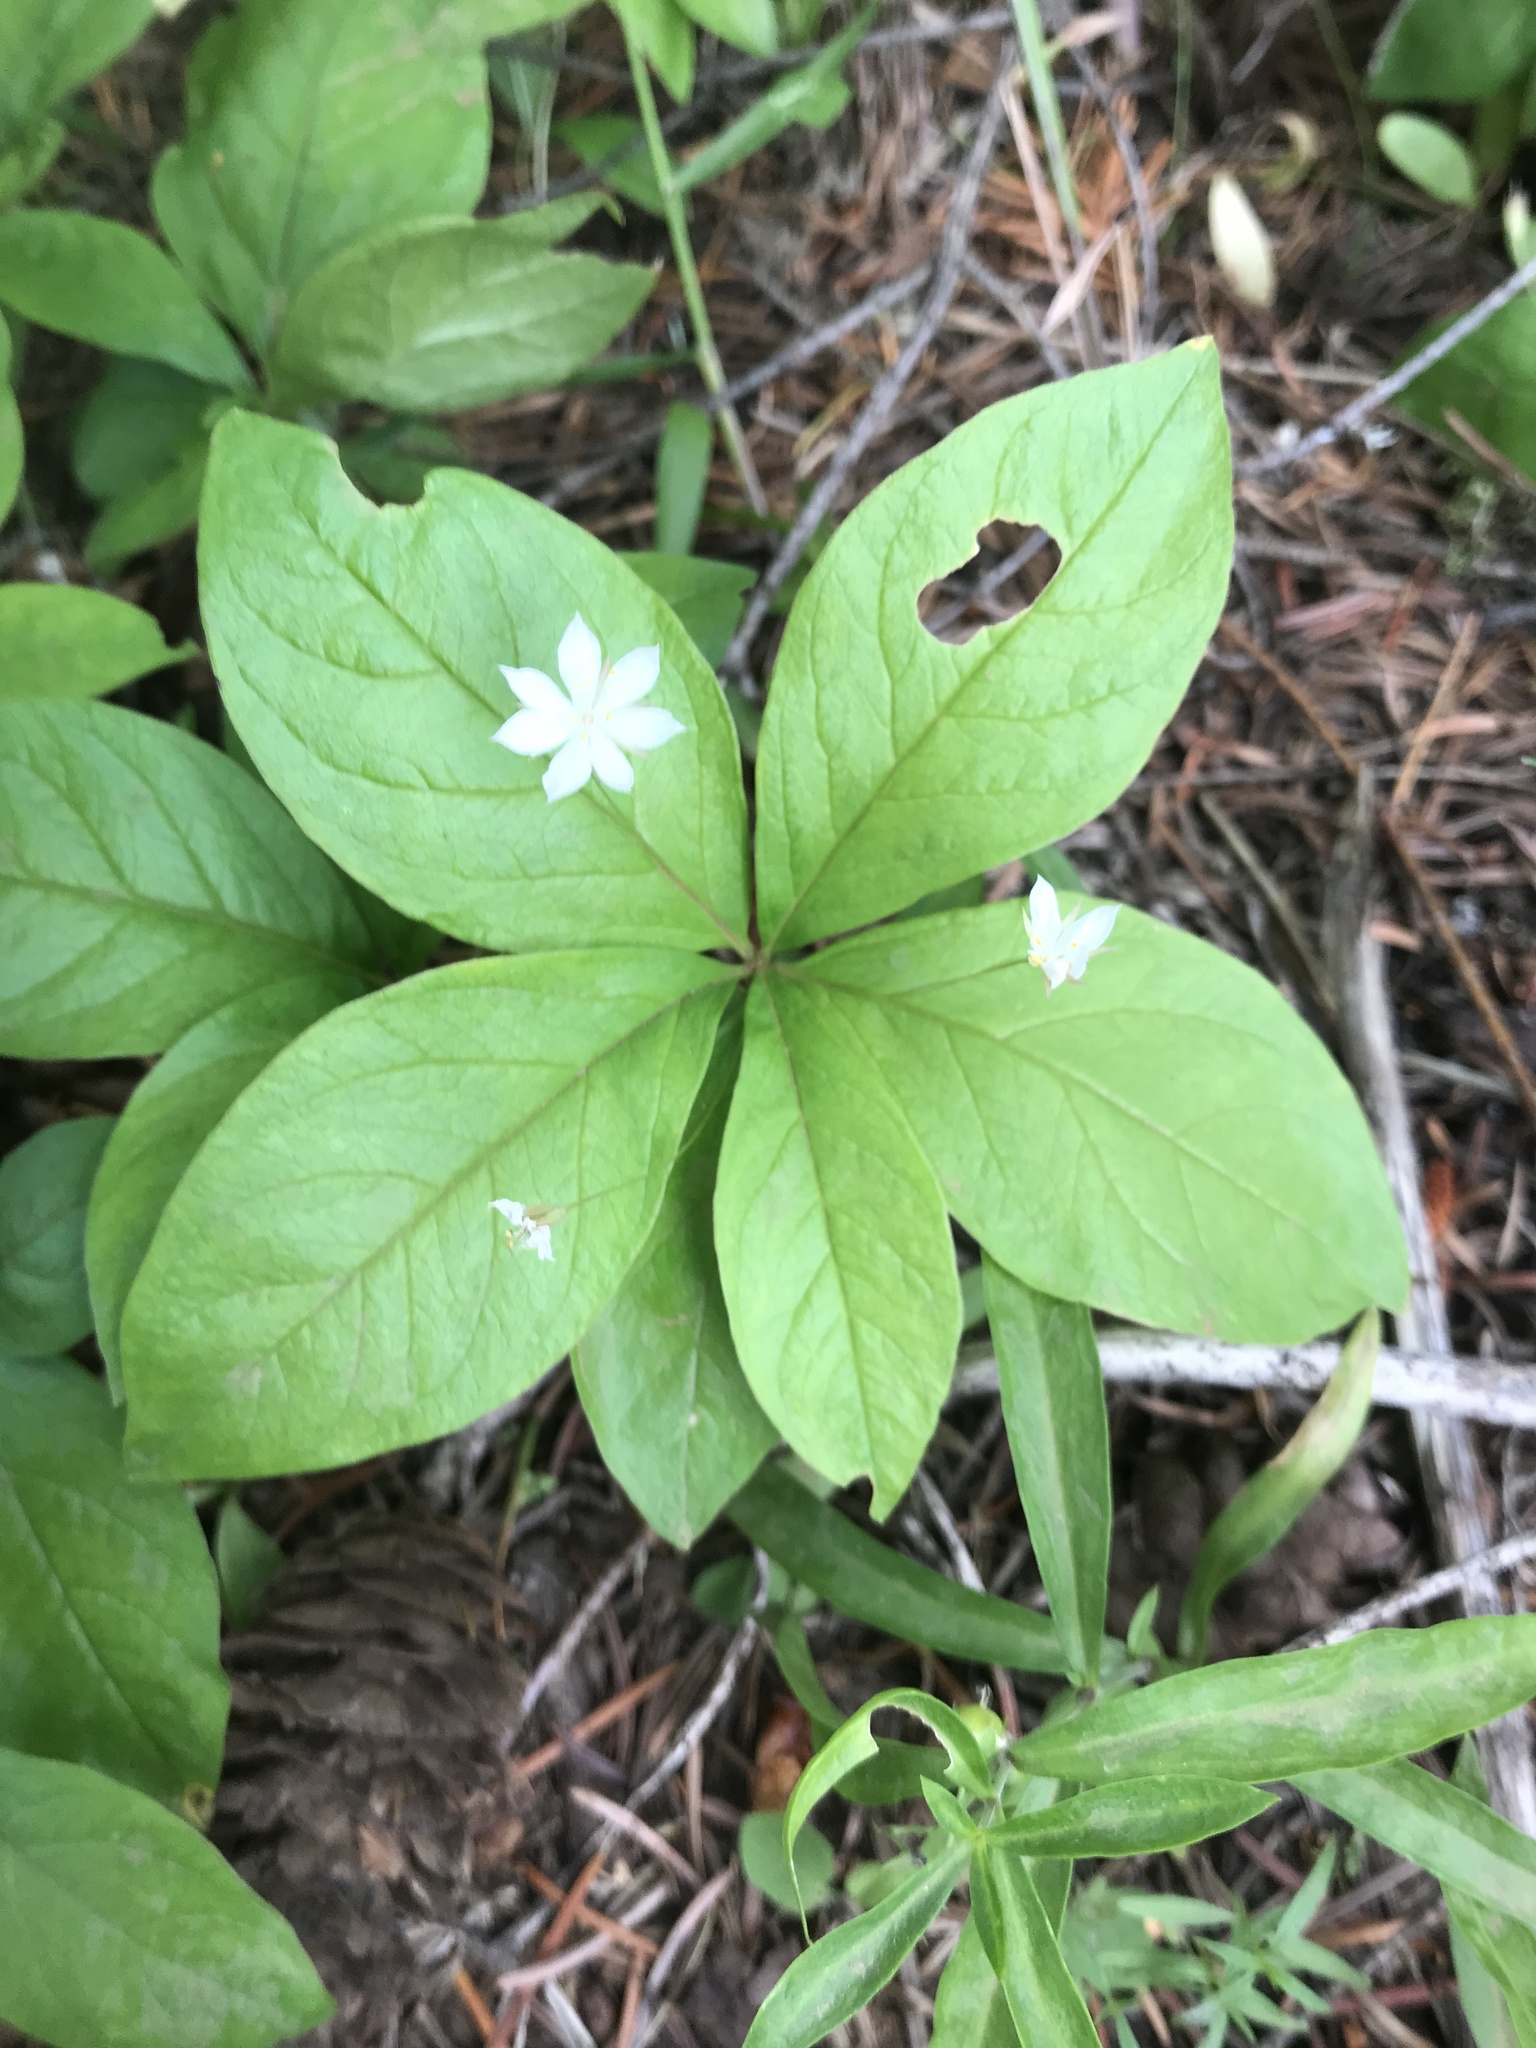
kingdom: Plantae
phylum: Tracheophyta
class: Magnoliopsida
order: Ericales
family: Primulaceae
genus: Lysimachia
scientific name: Lysimachia latifolia
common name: Pacific starflower
